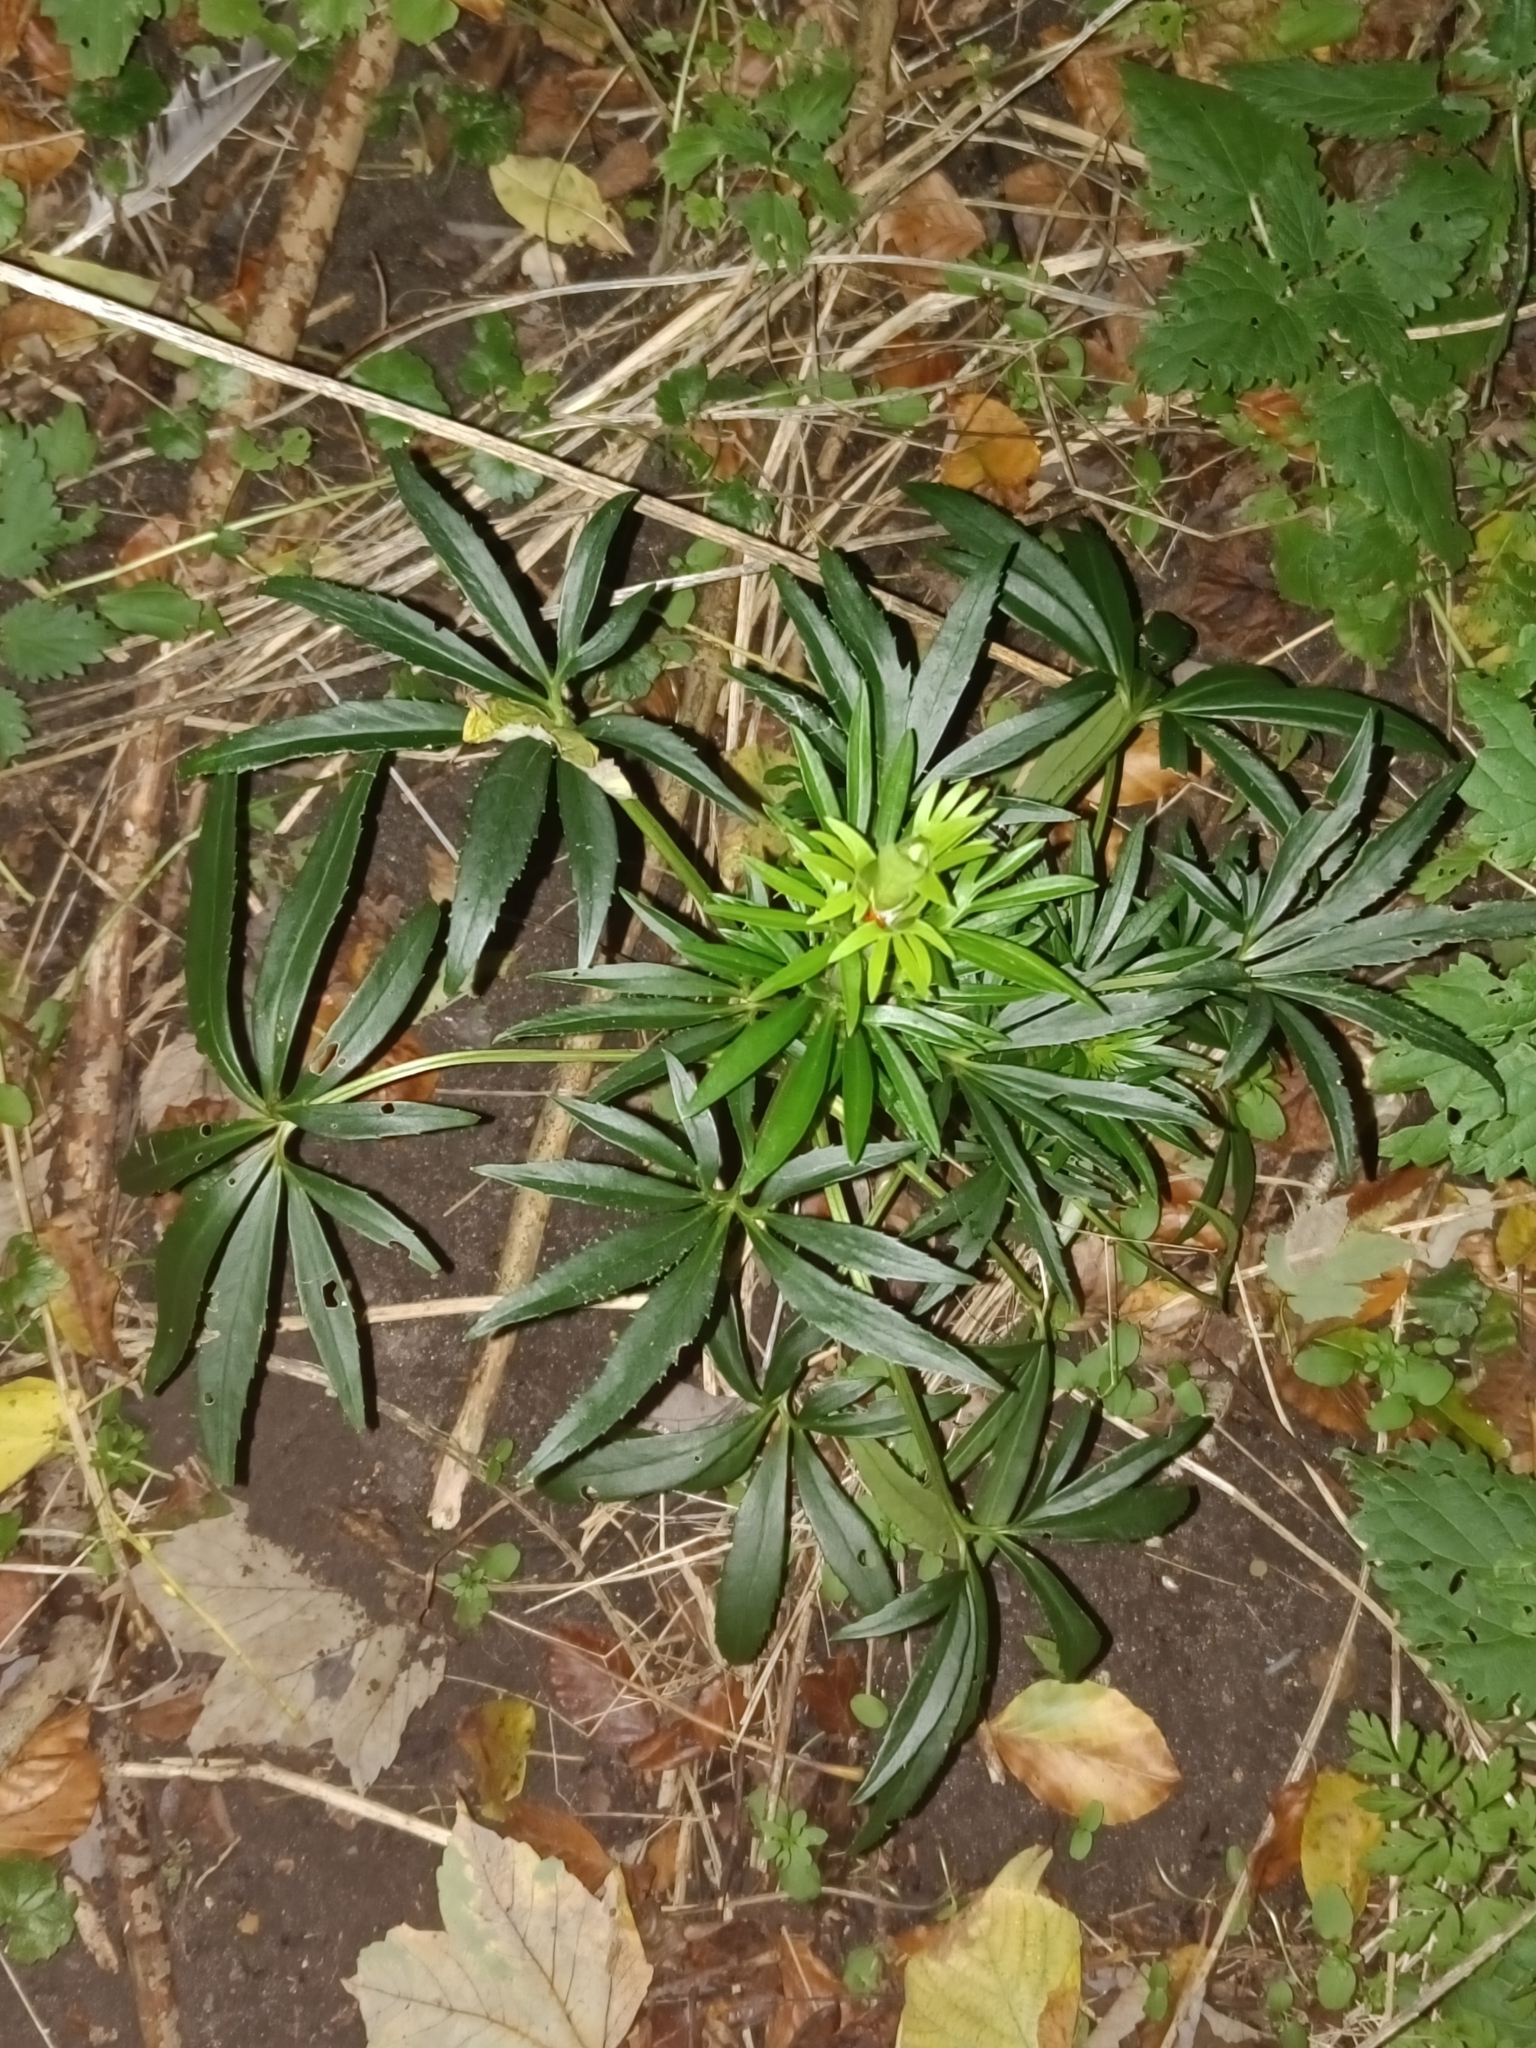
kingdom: Plantae
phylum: Tracheophyta
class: Magnoliopsida
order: Ranunculales
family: Ranunculaceae
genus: Helleborus
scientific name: Helleborus foetidus
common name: Stinking hellebore
